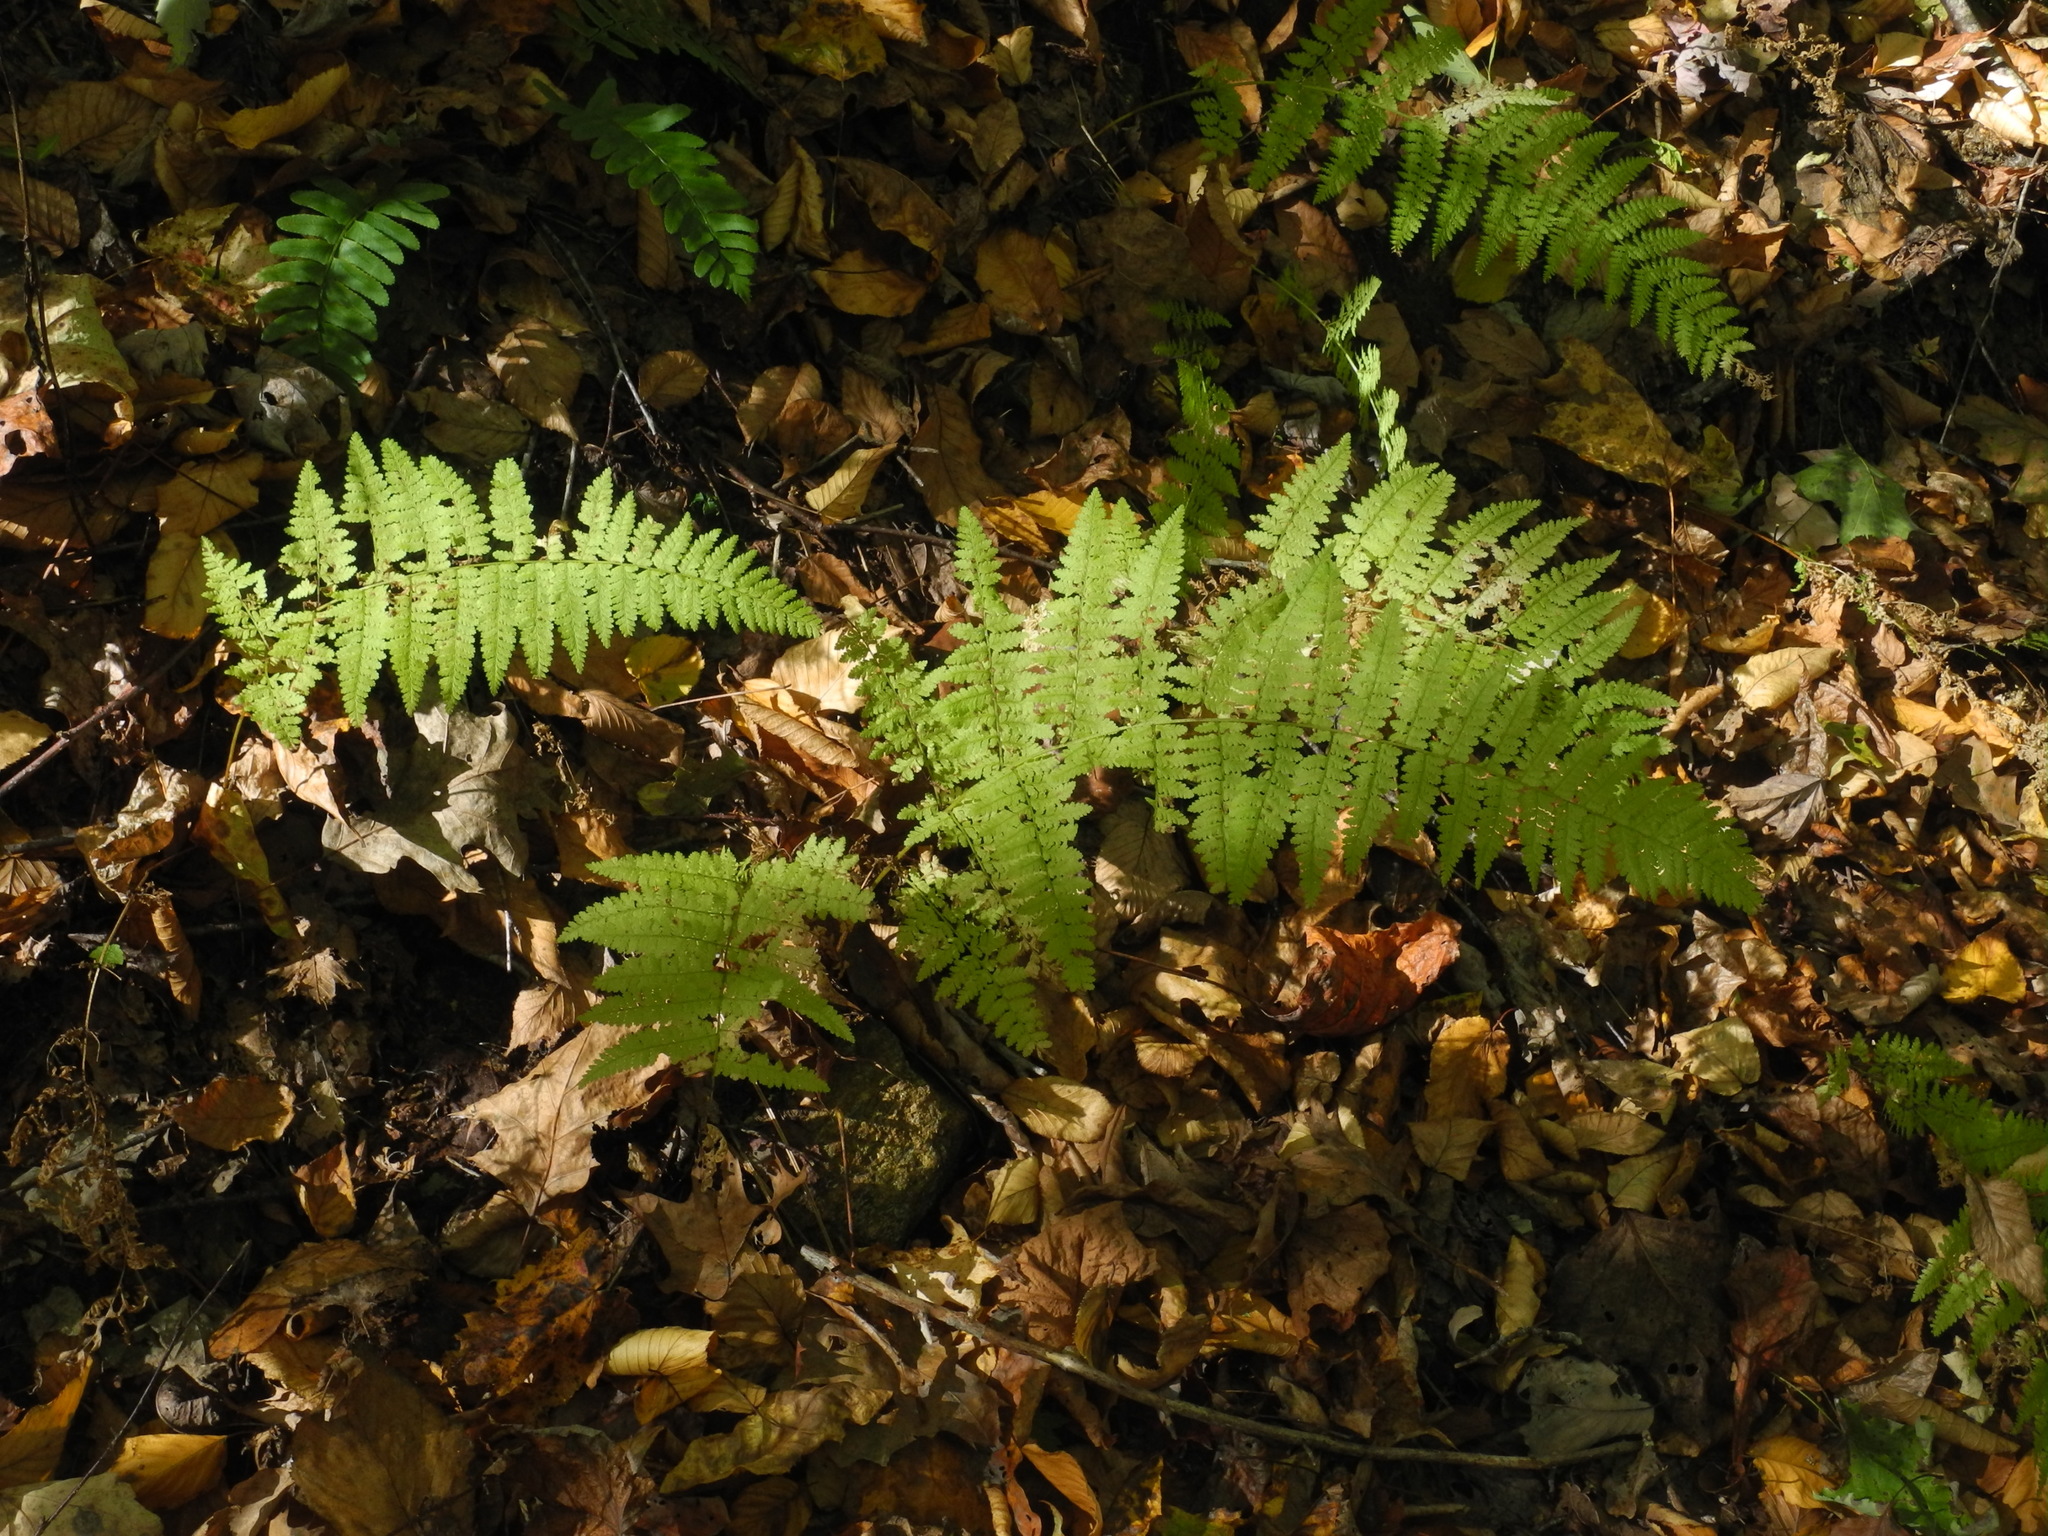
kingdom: Plantae
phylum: Tracheophyta
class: Polypodiopsida
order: Polypodiales
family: Dennstaedtiaceae
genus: Sitobolium
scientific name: Sitobolium punctilobum
